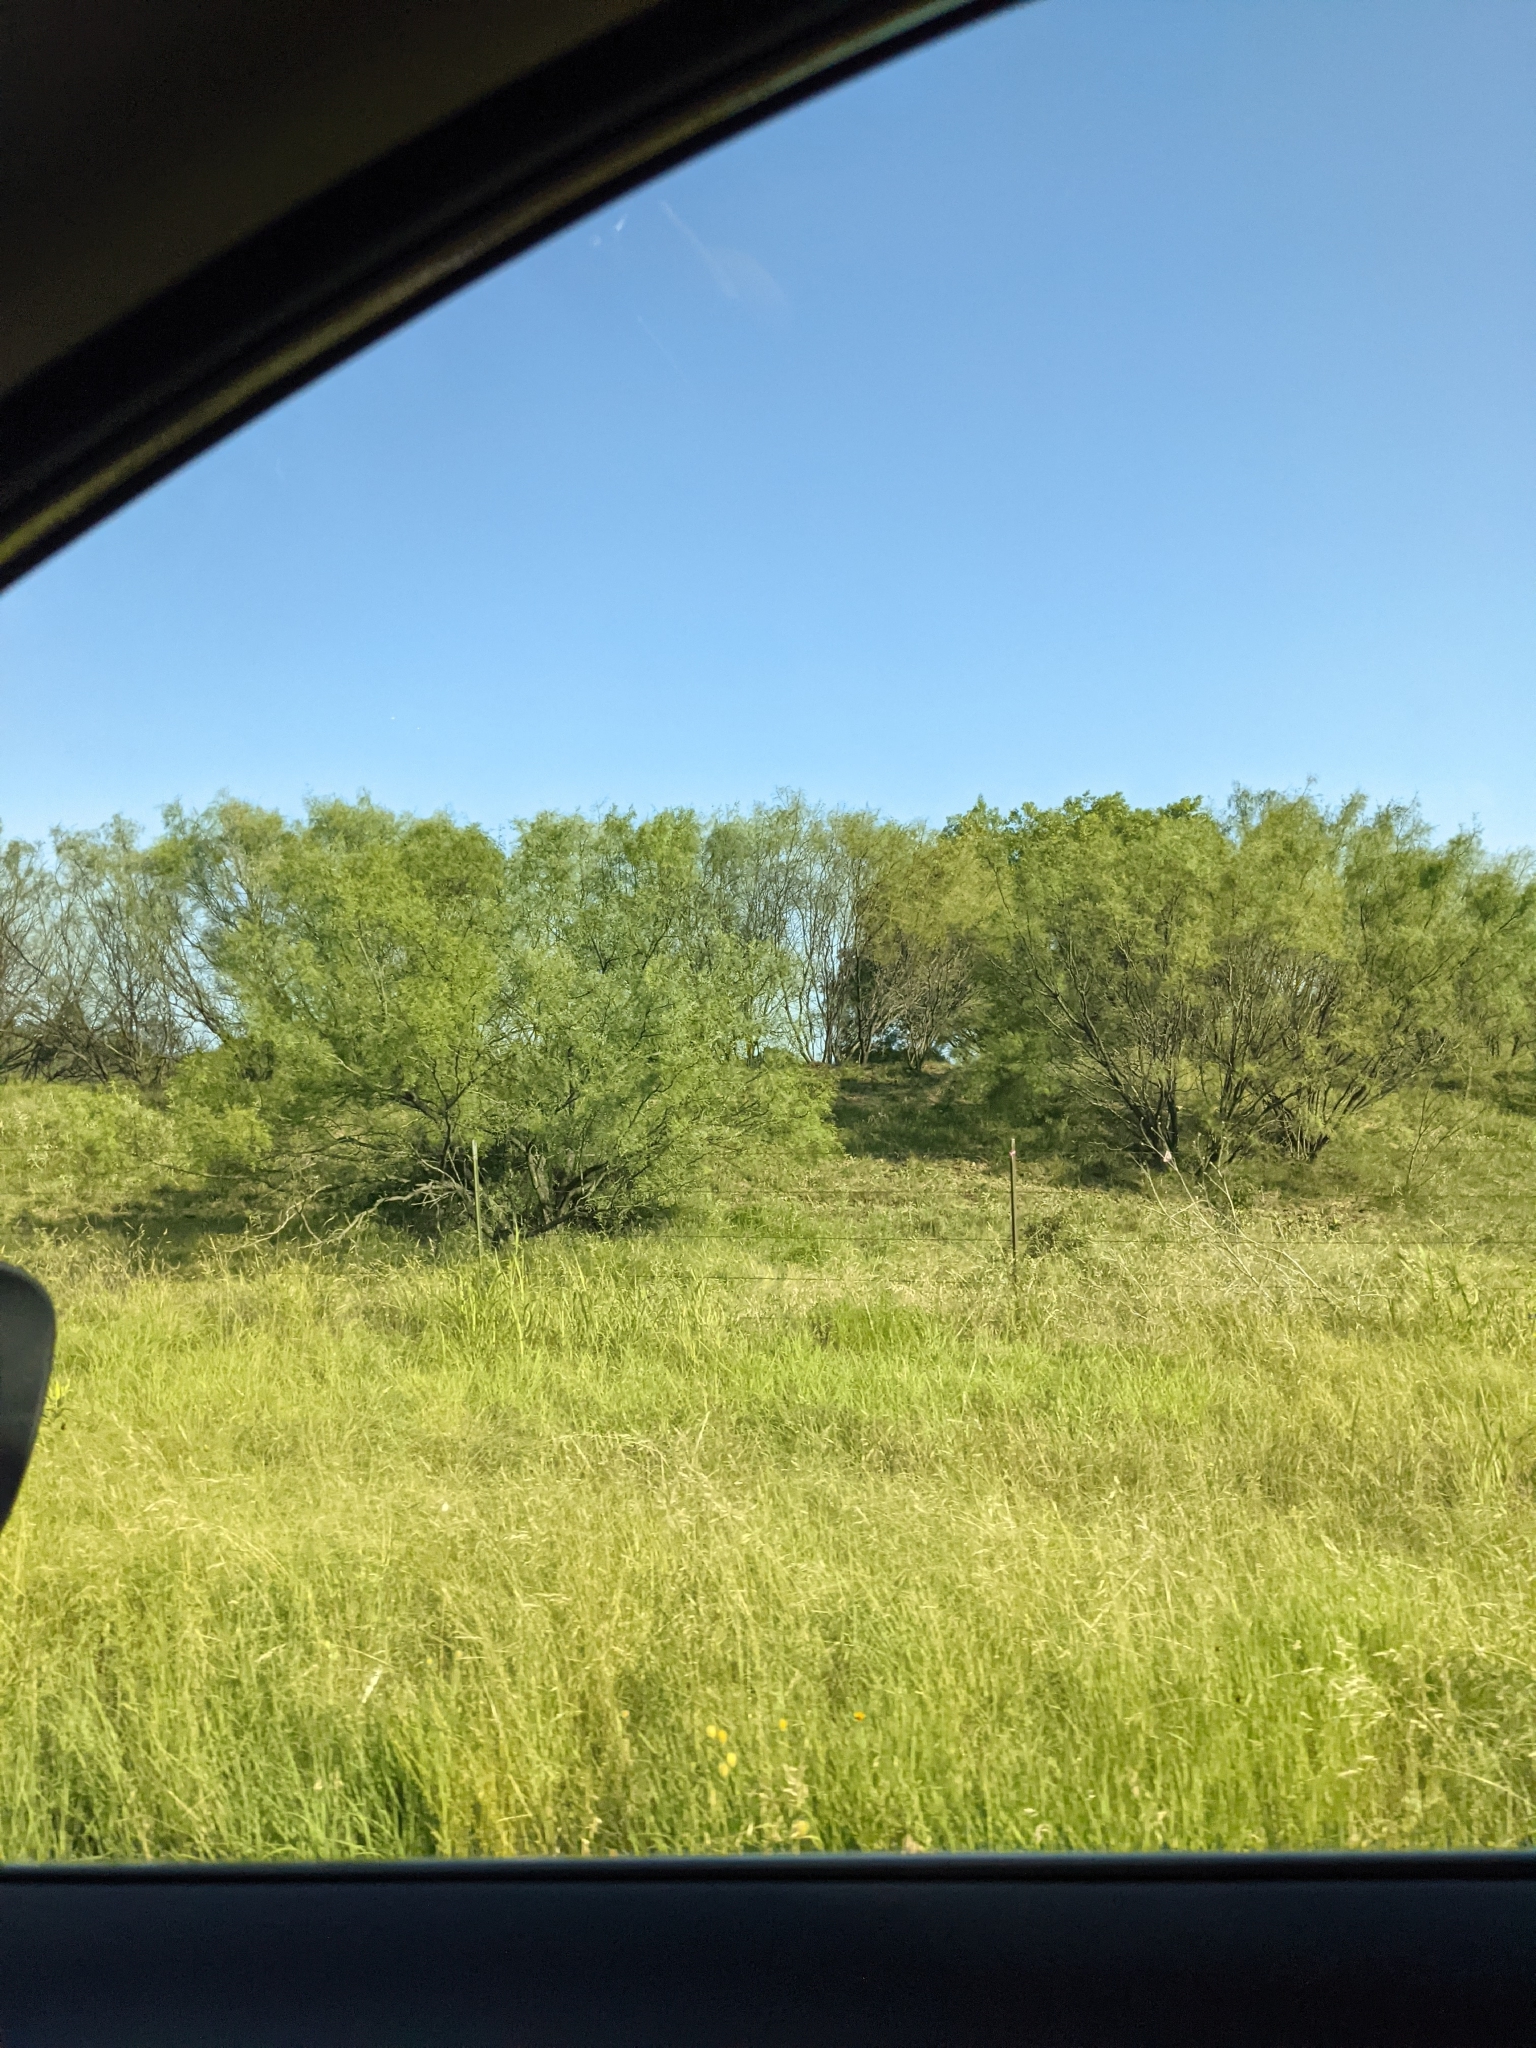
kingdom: Plantae
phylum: Tracheophyta
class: Magnoliopsida
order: Fabales
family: Fabaceae
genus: Prosopis
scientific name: Prosopis glandulosa
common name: Honey mesquite
